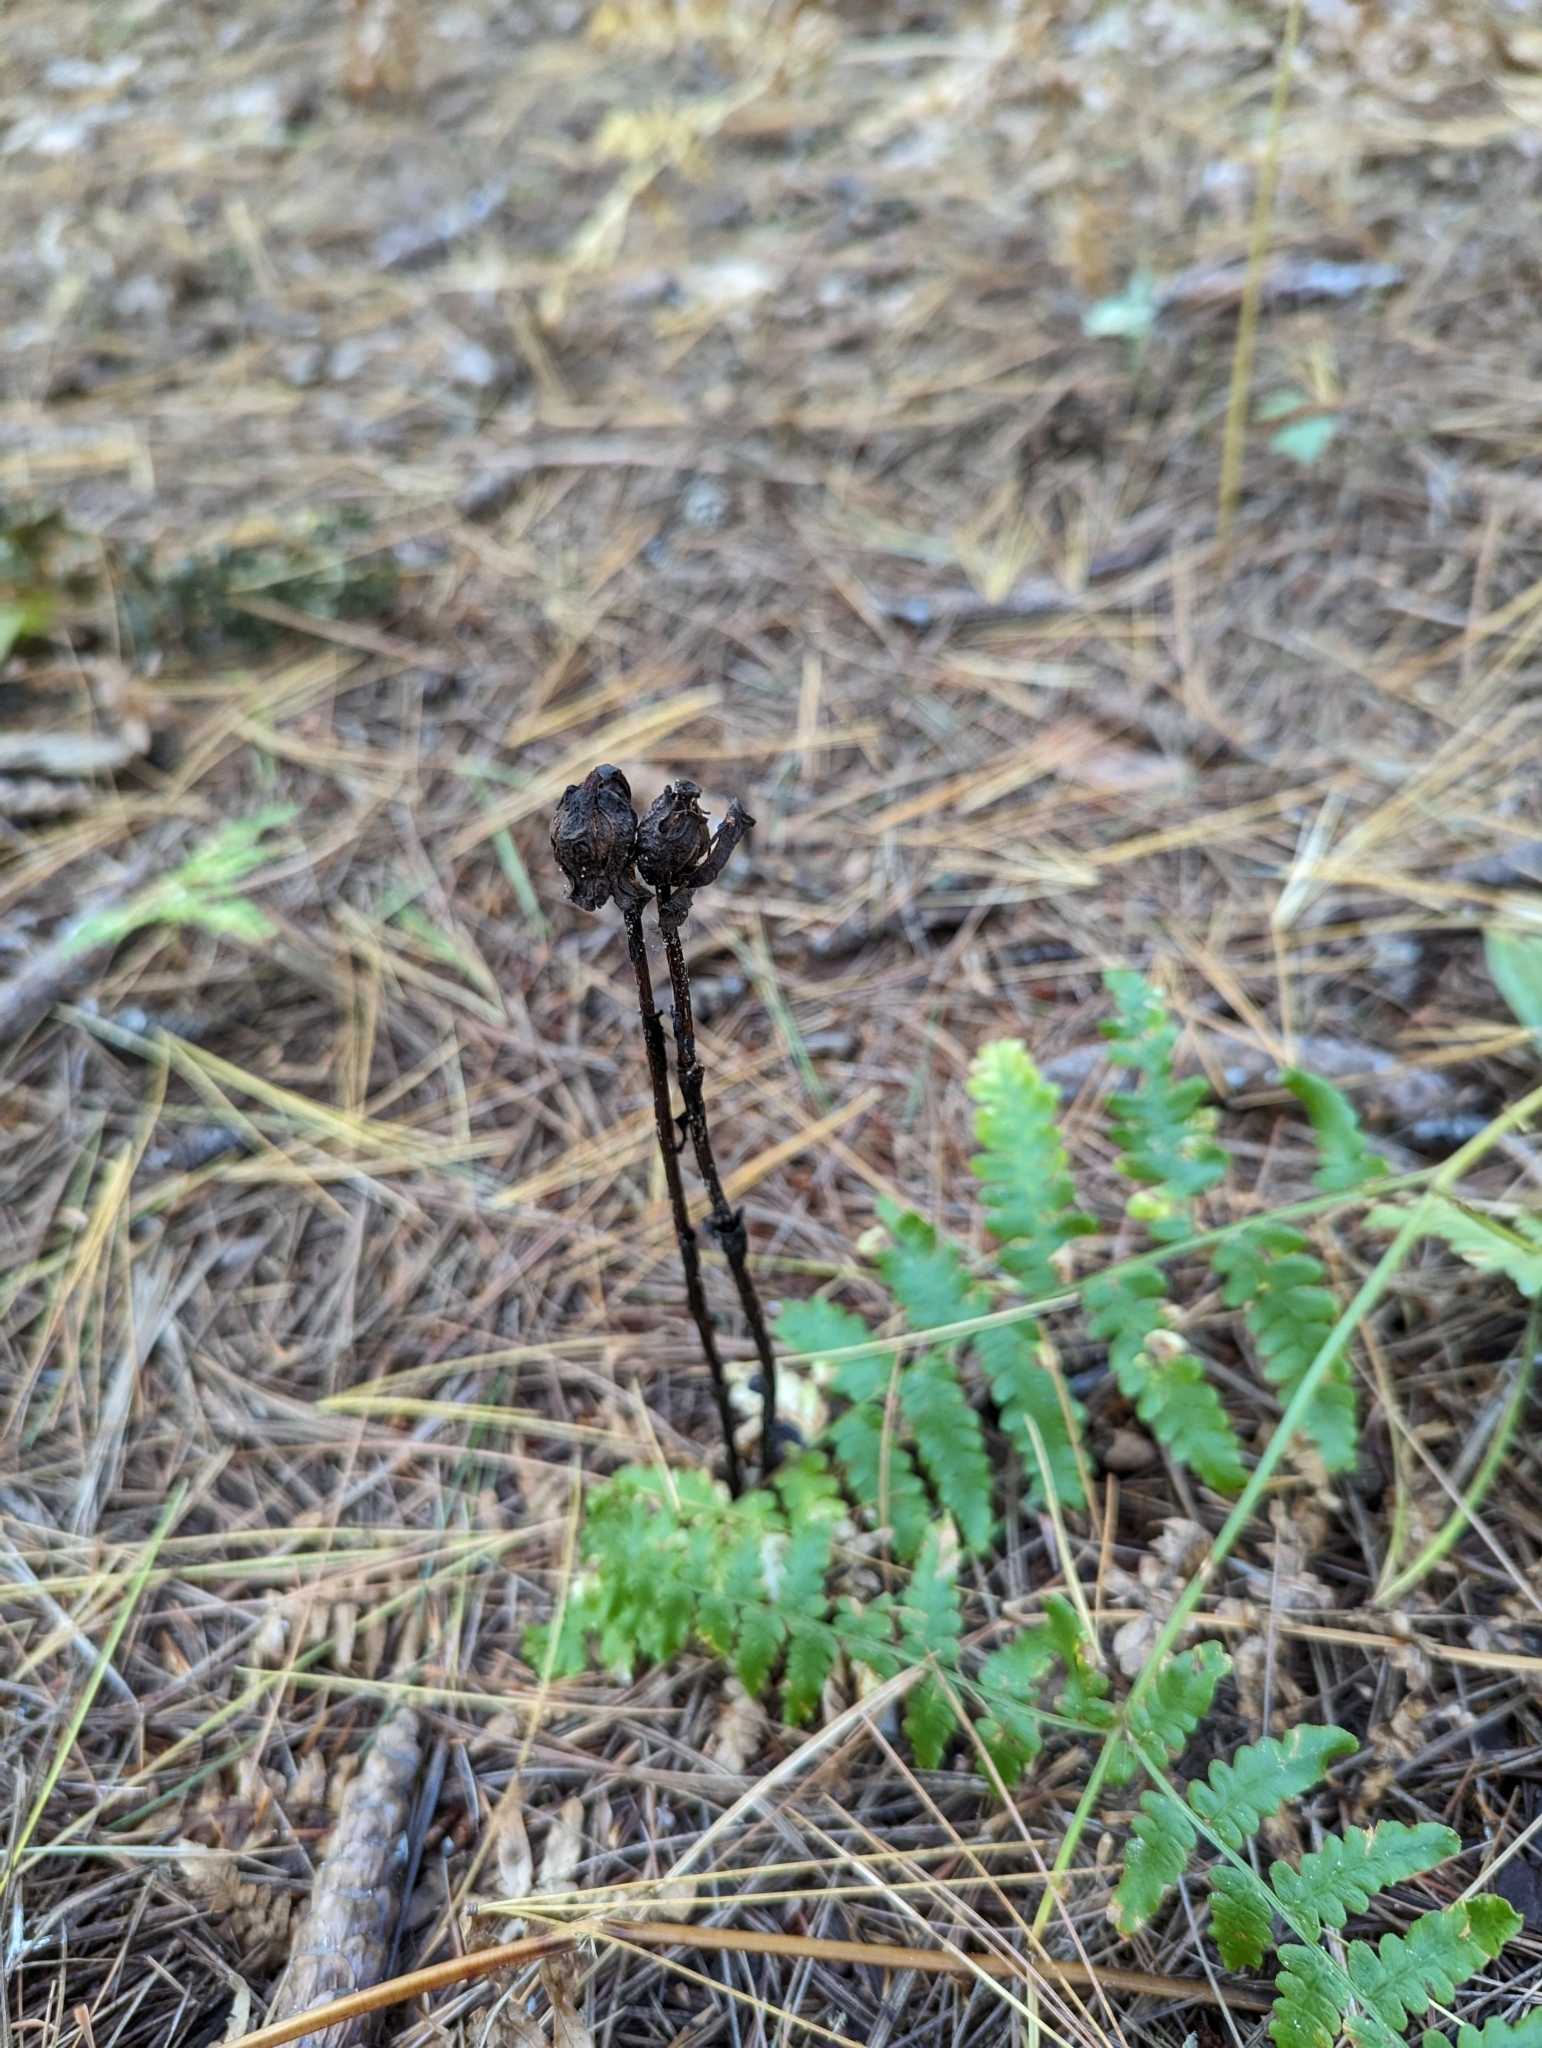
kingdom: Plantae
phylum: Tracheophyta
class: Magnoliopsida
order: Ericales
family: Ericaceae
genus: Monotropa
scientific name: Monotropa uniflora
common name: Convulsion root
